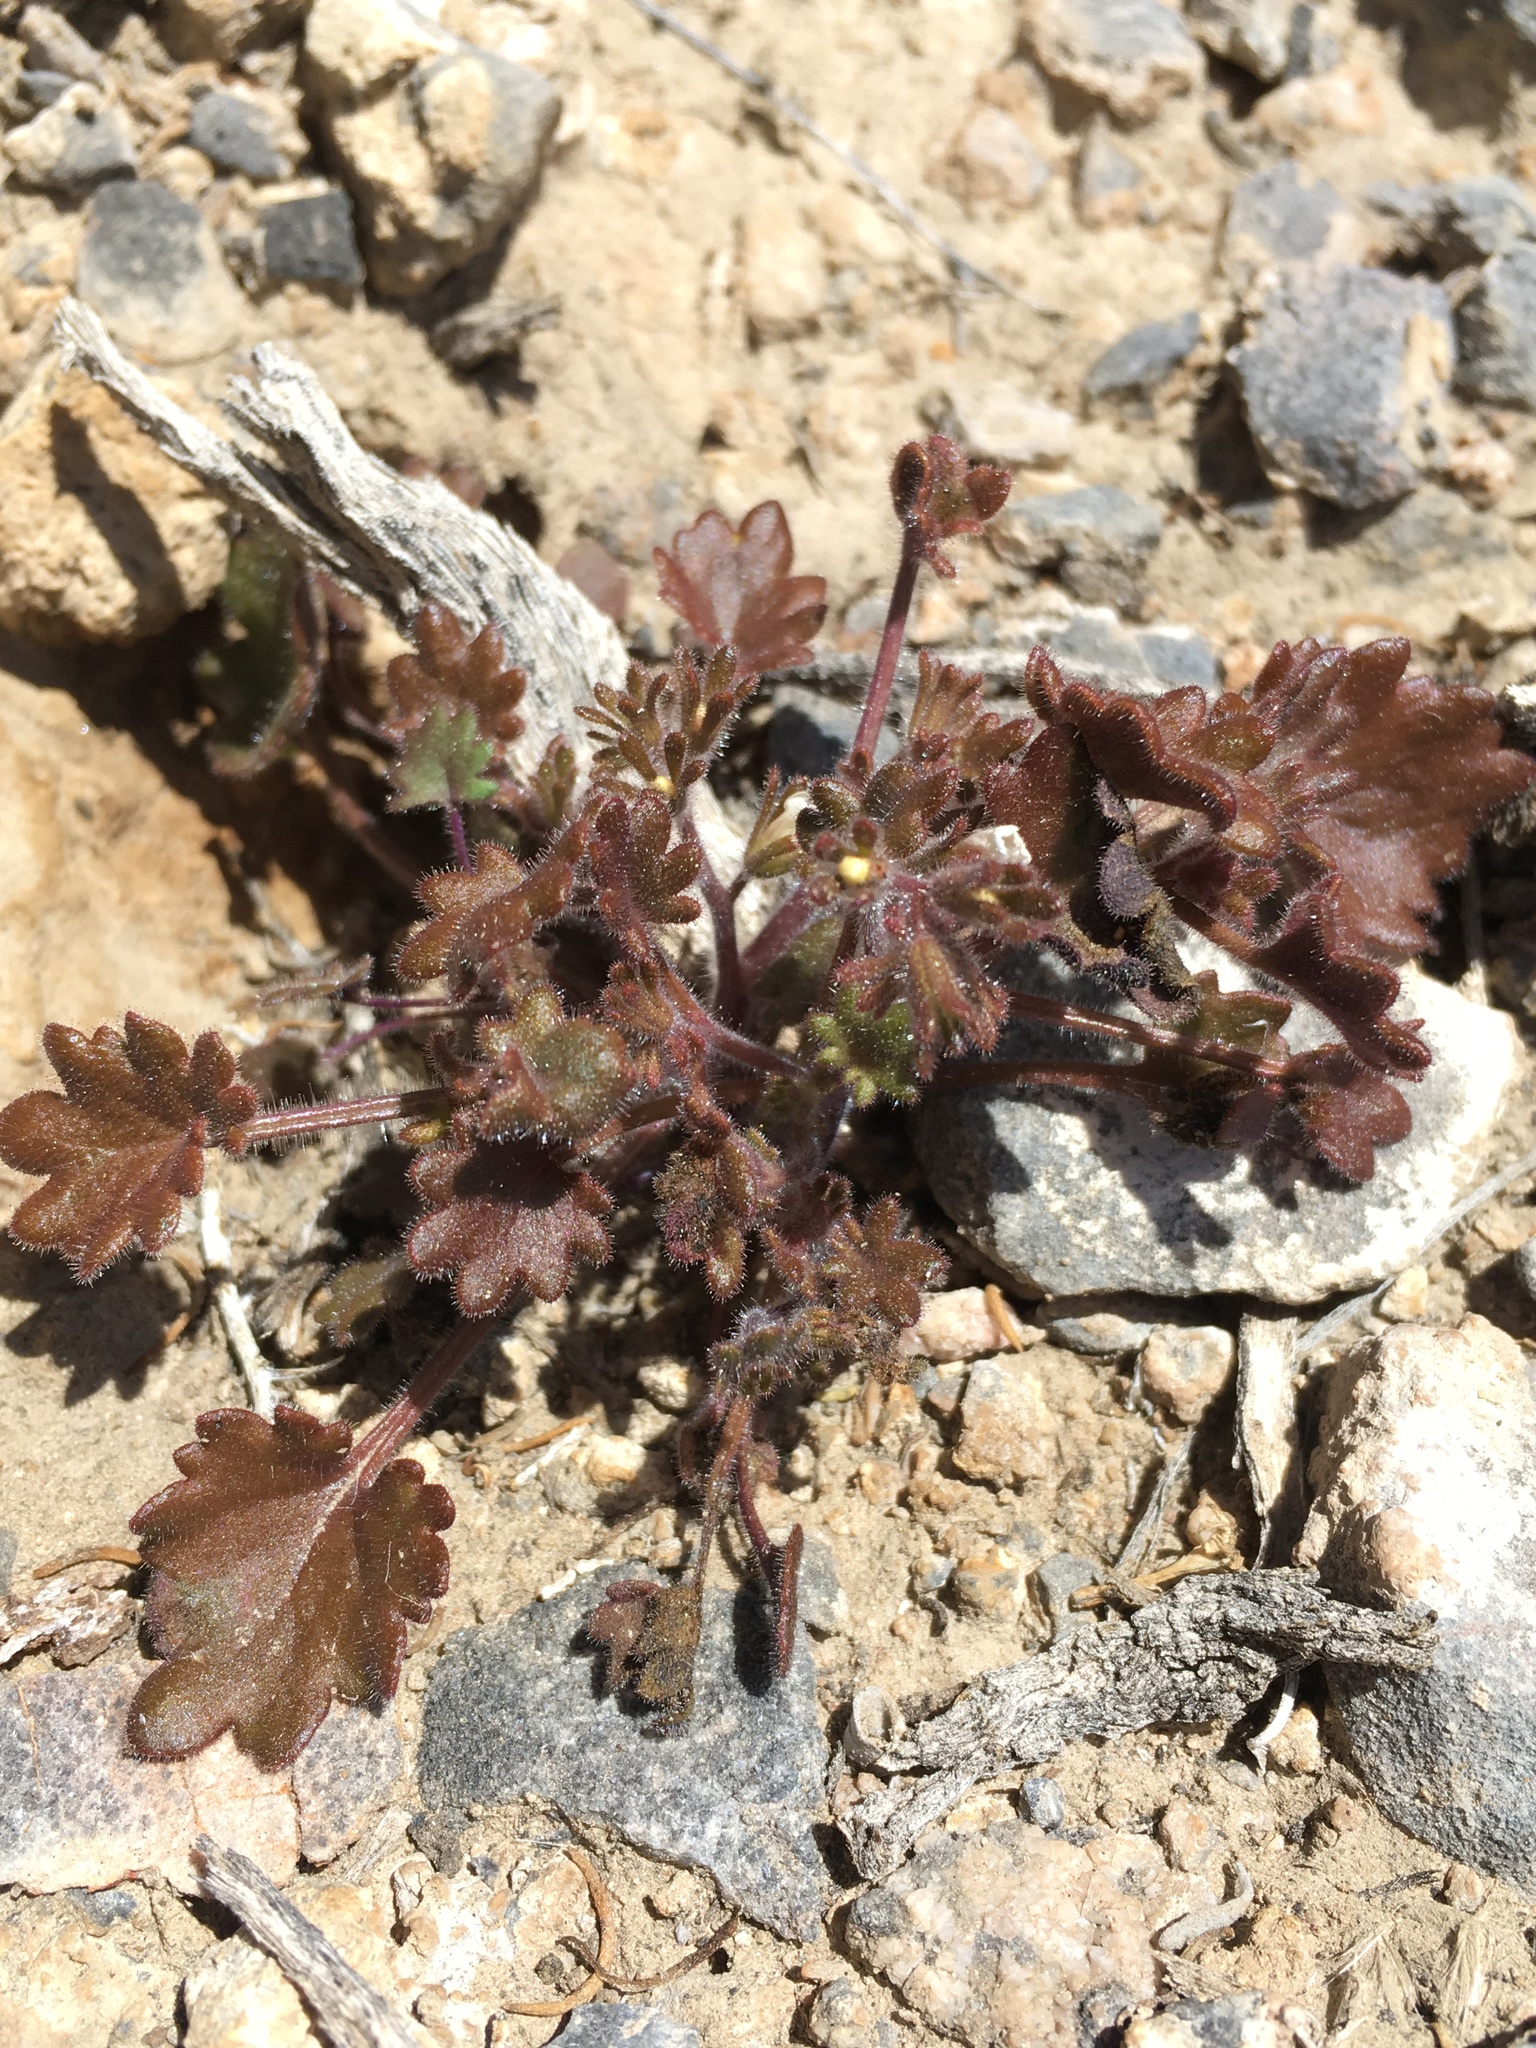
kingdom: Plantae
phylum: Tracheophyta
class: Magnoliopsida
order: Boraginales
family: Hydrophyllaceae
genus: Phacelia
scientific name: Phacelia rotundifolia
